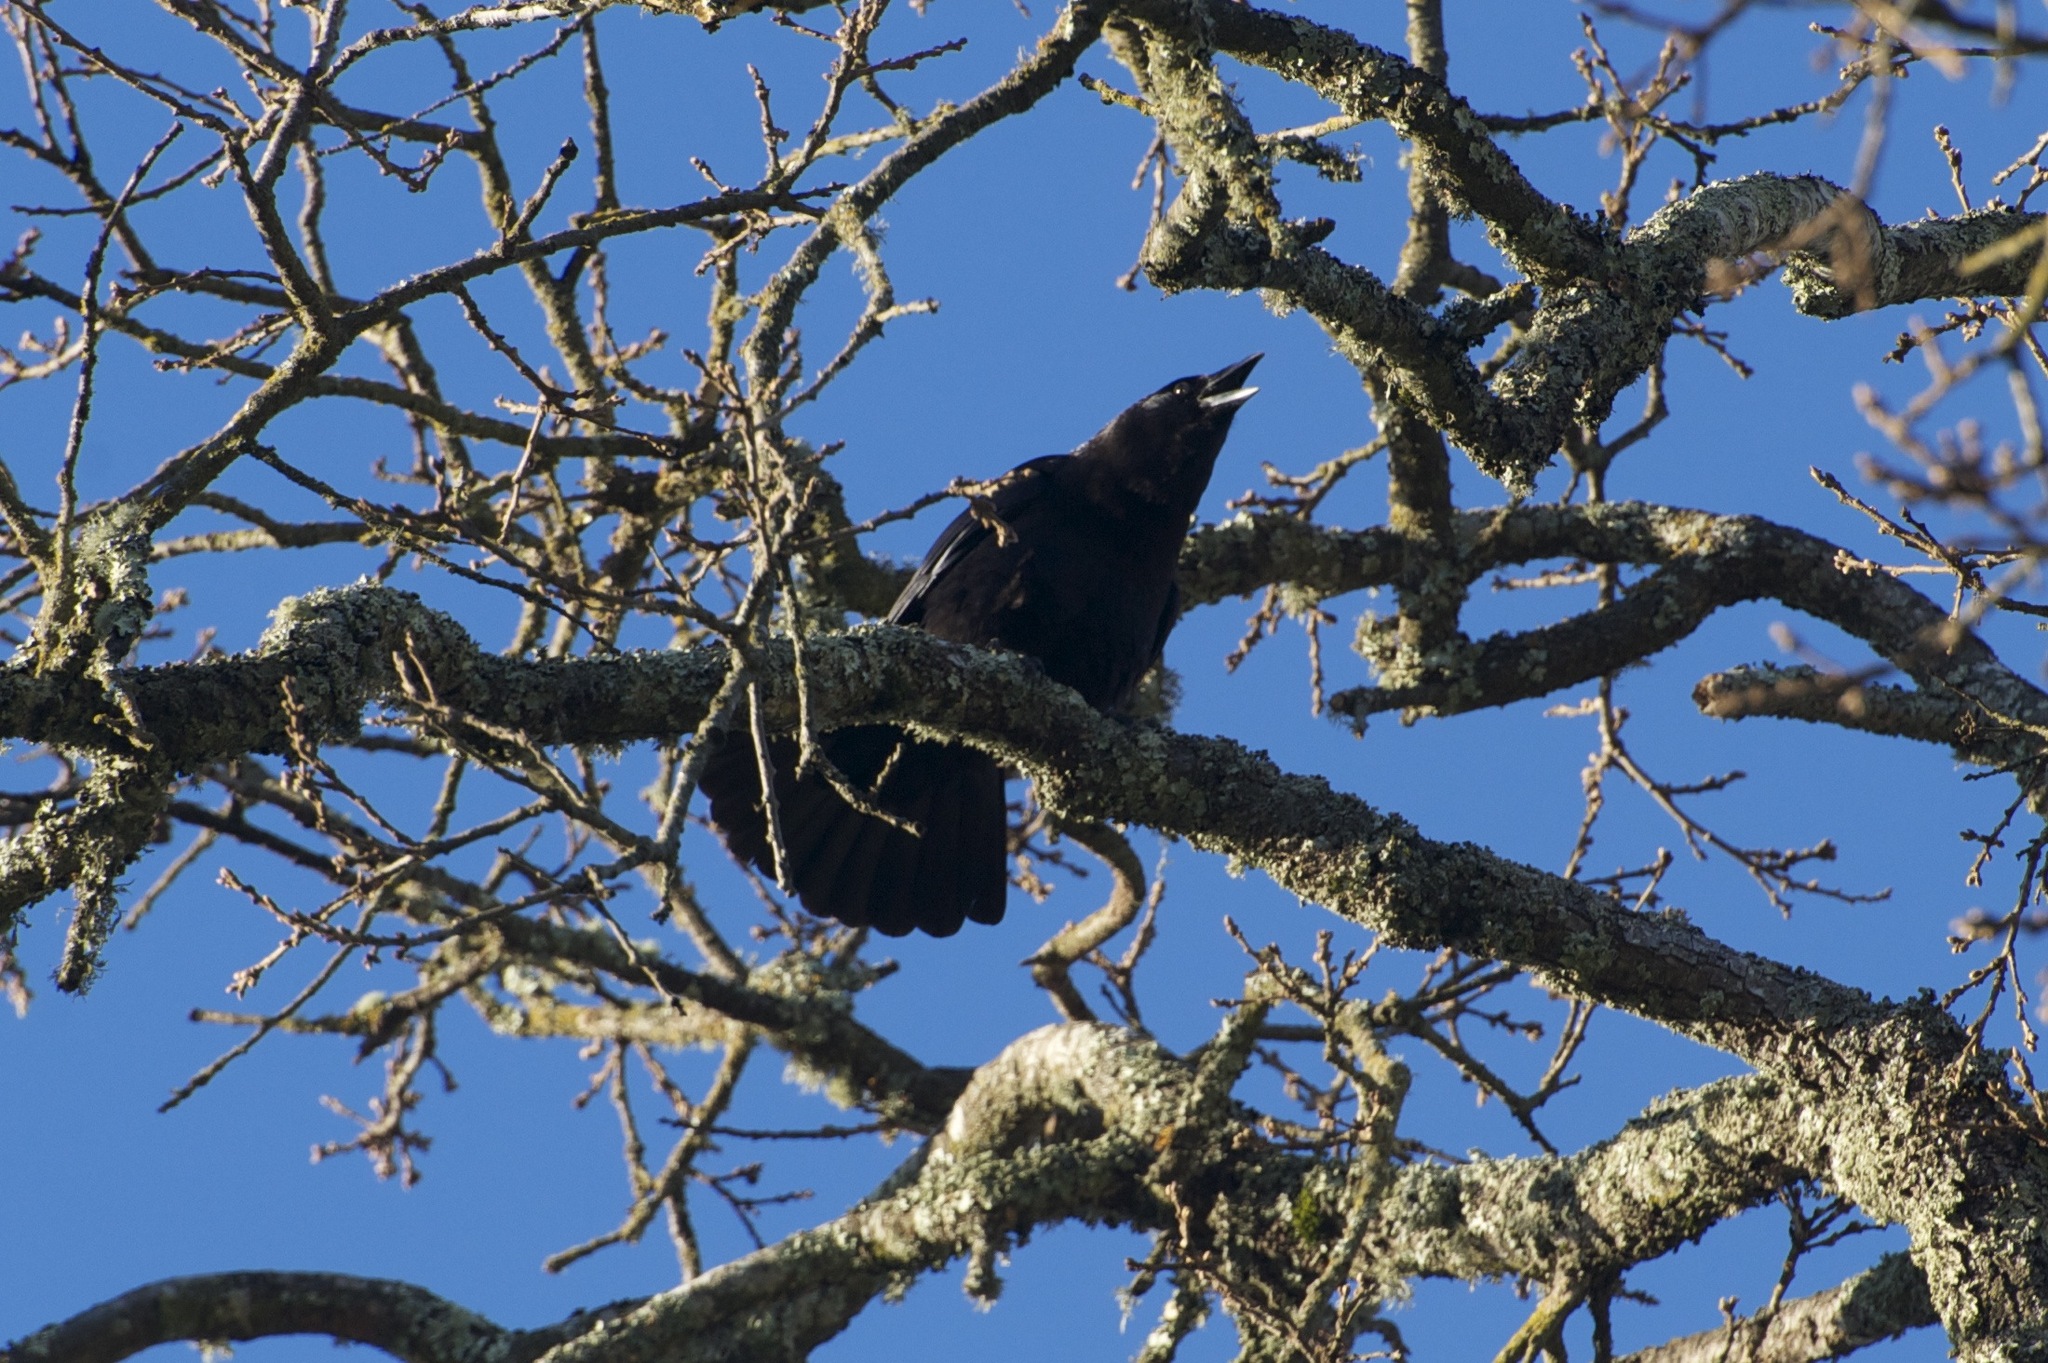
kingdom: Animalia
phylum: Chordata
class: Aves
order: Passeriformes
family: Corvidae
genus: Corvus
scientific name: Corvus brachyrhynchos
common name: American crow
